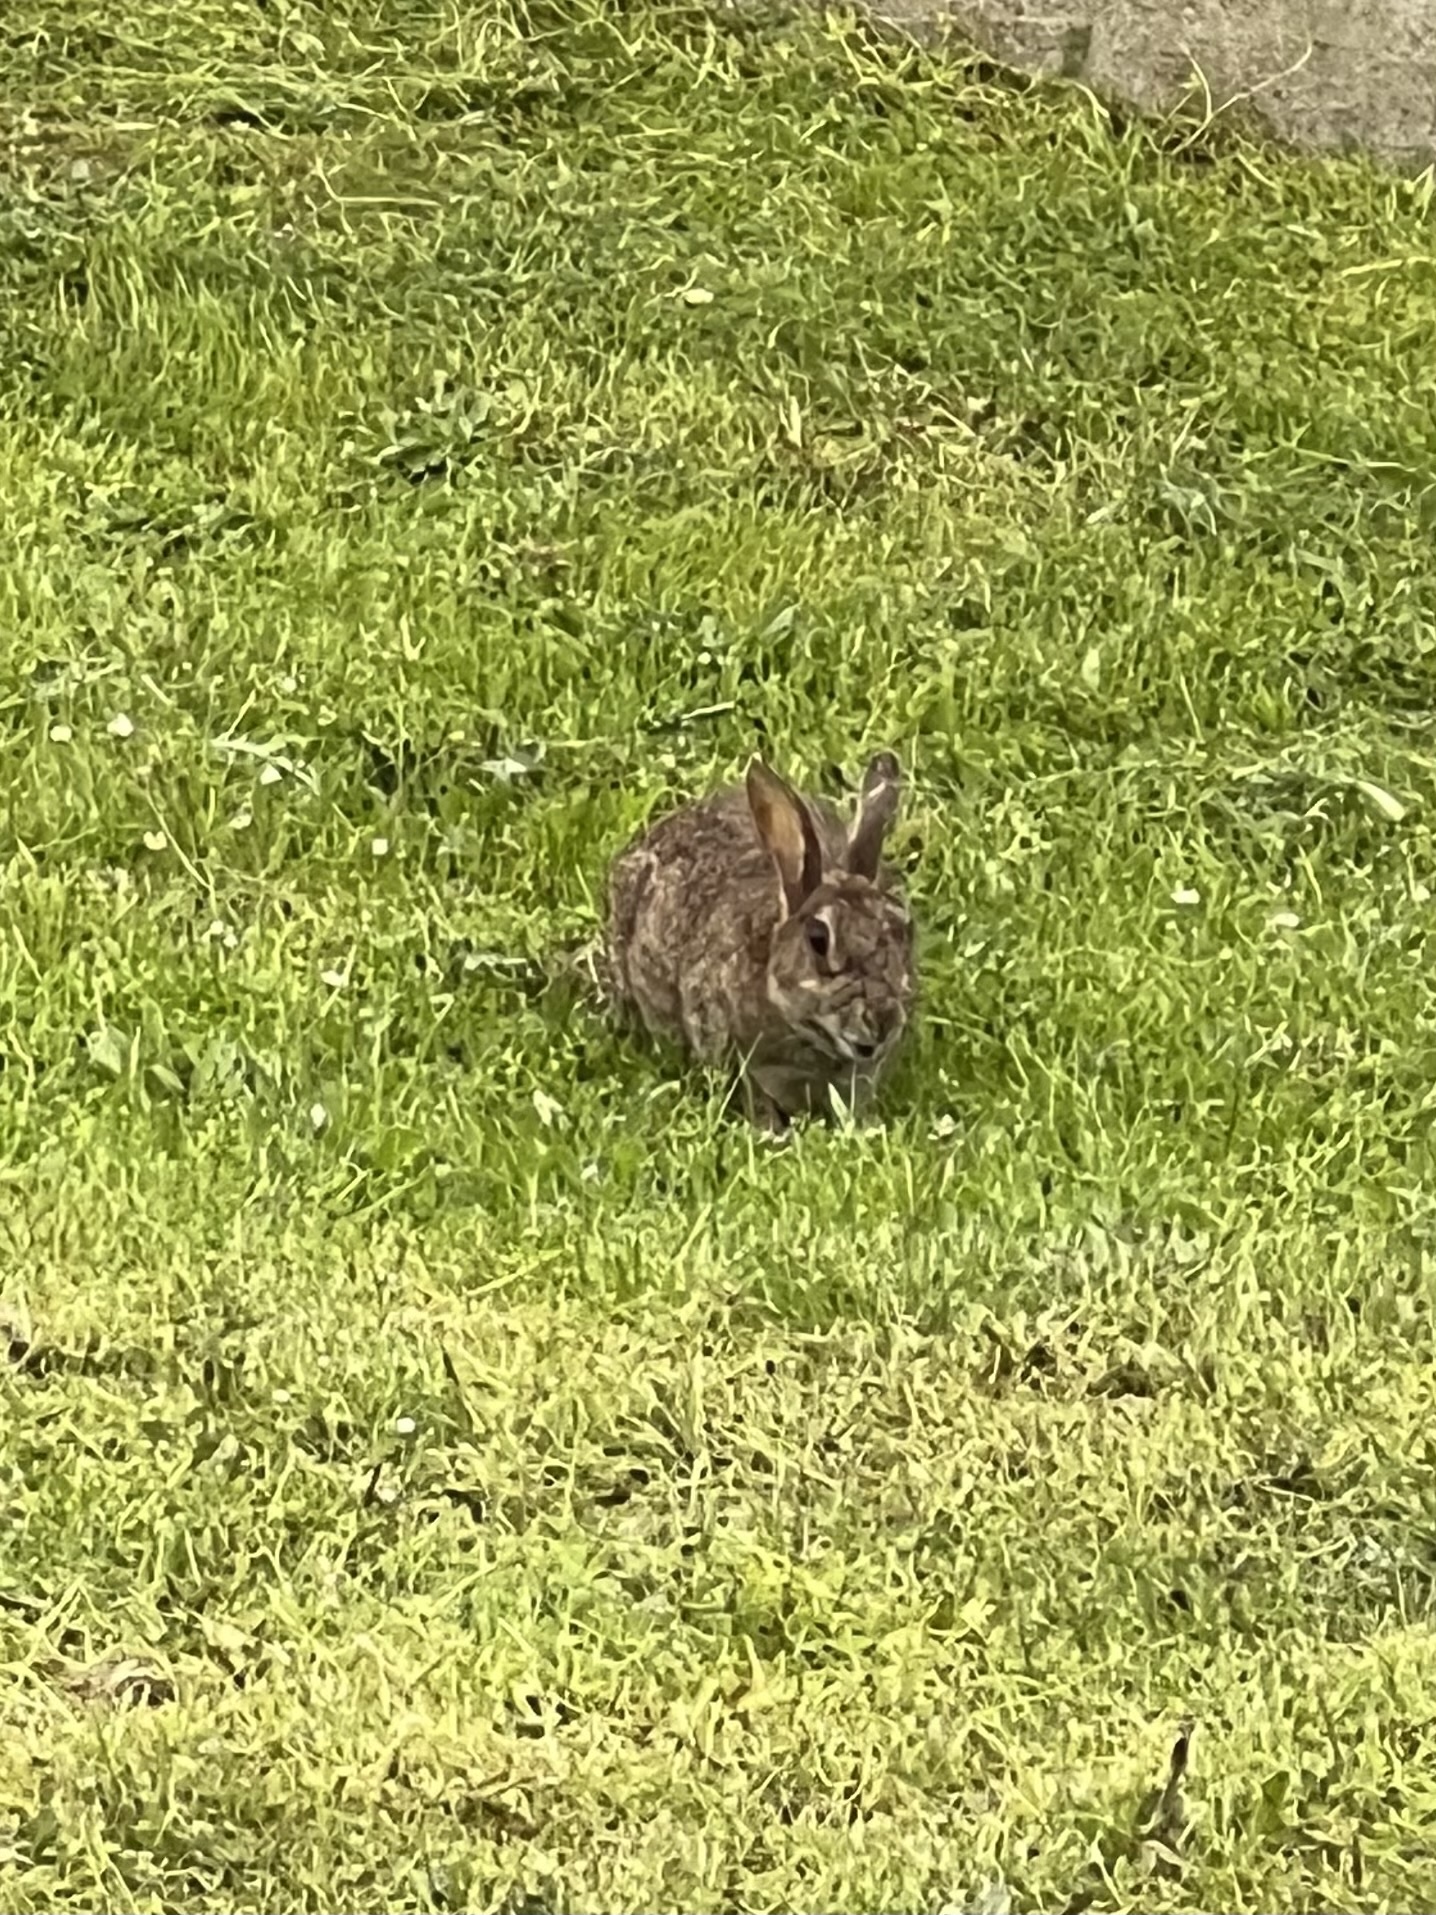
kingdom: Animalia
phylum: Chordata
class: Mammalia
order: Lagomorpha
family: Leporidae
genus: Oryctolagus
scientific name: Oryctolagus cuniculus
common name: European rabbit
